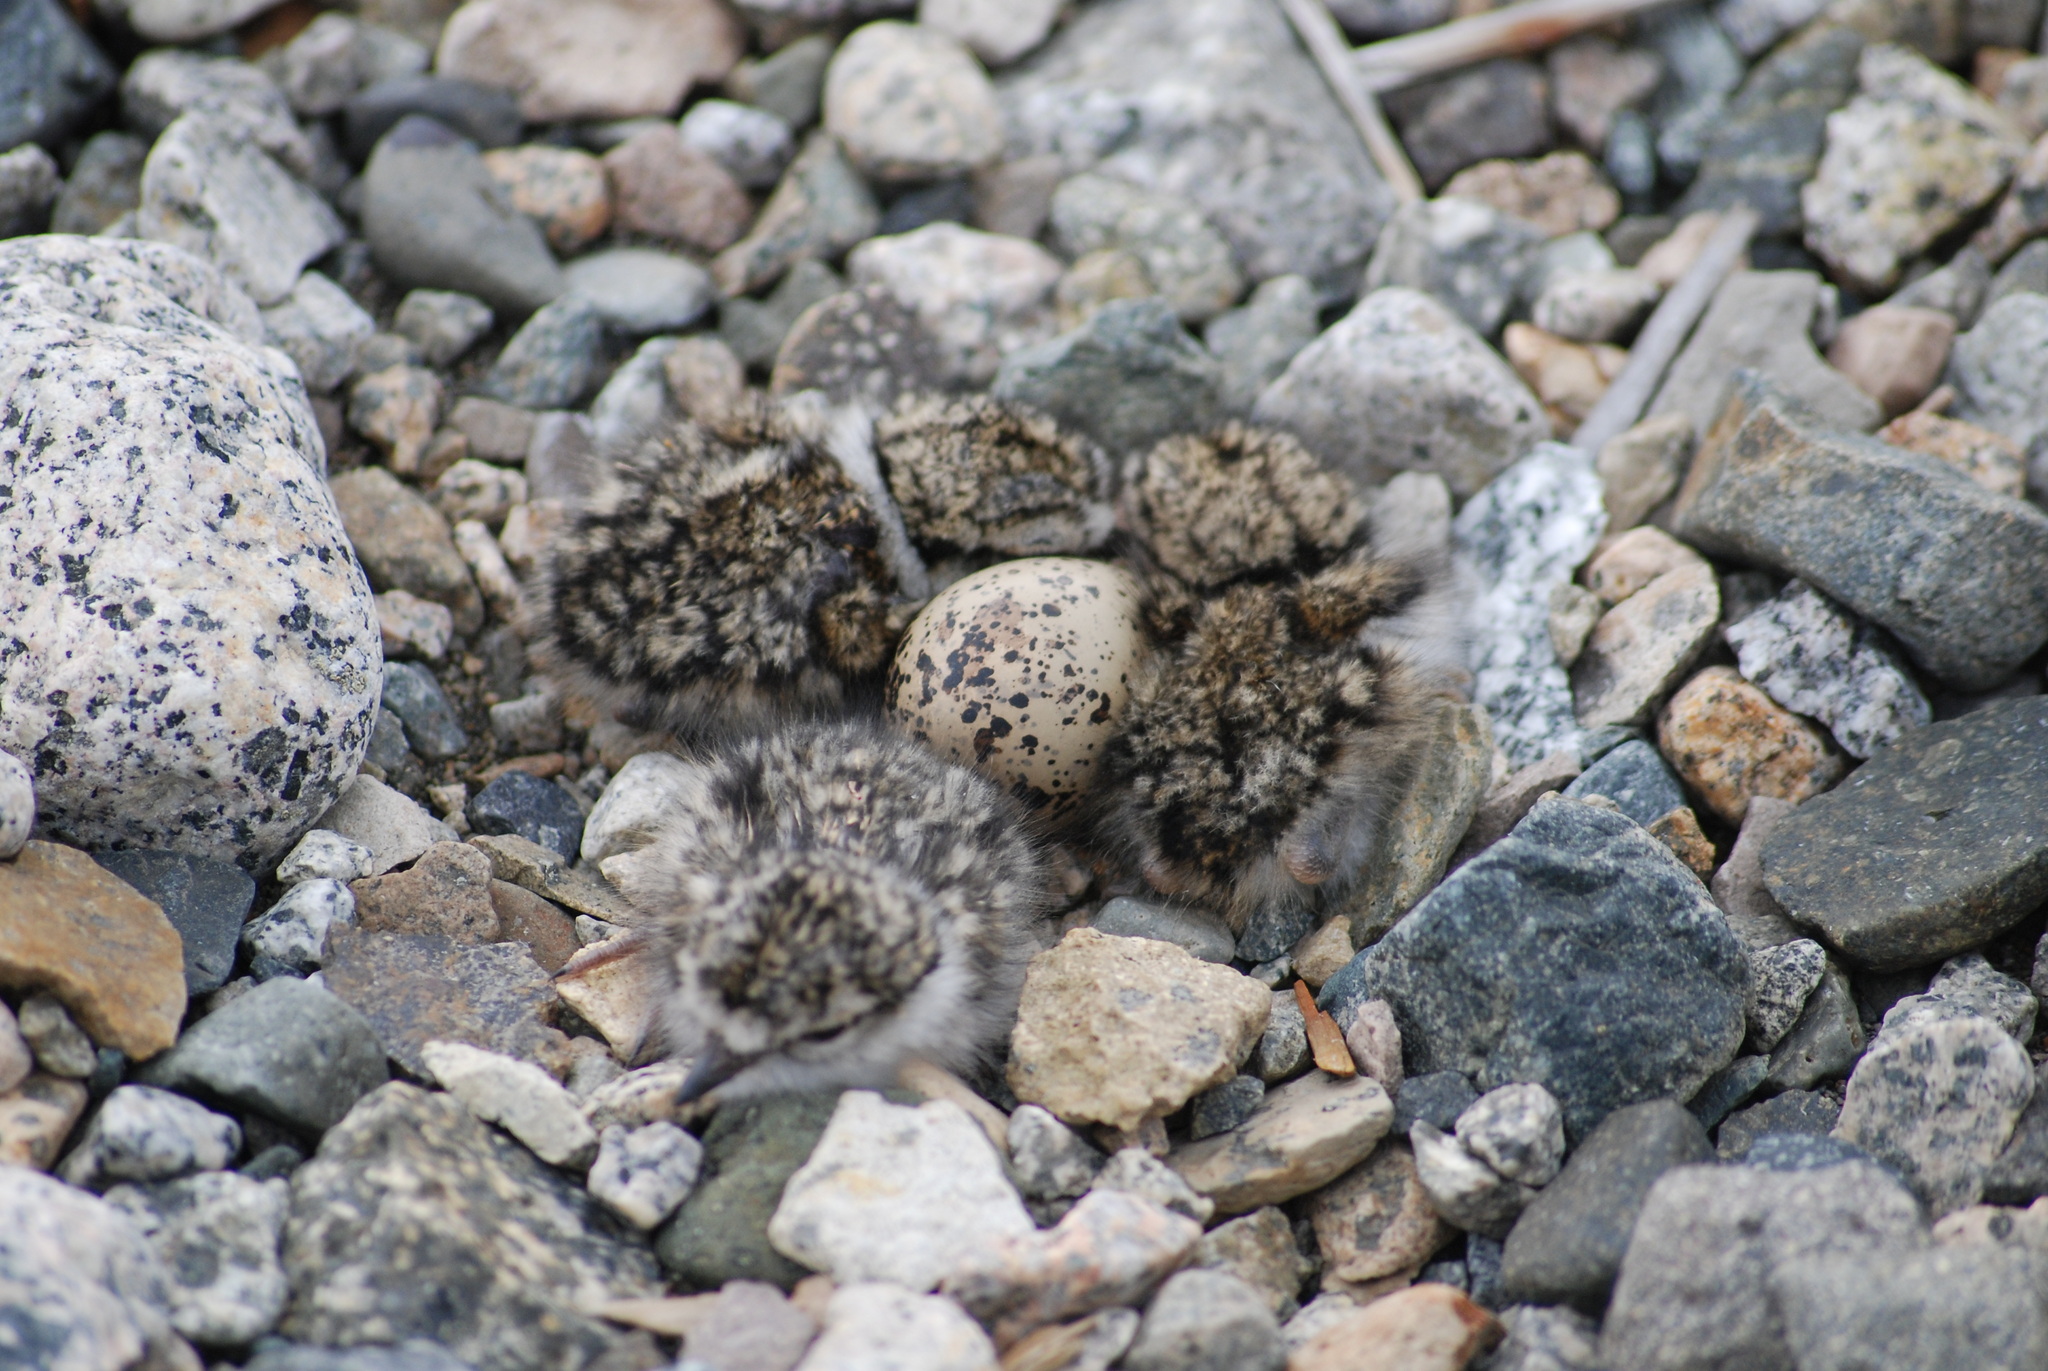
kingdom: Animalia
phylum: Chordata
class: Aves
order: Charadriiformes
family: Charadriidae
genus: Charadrius
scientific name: Charadrius hiaticula
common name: Common ringed plover
